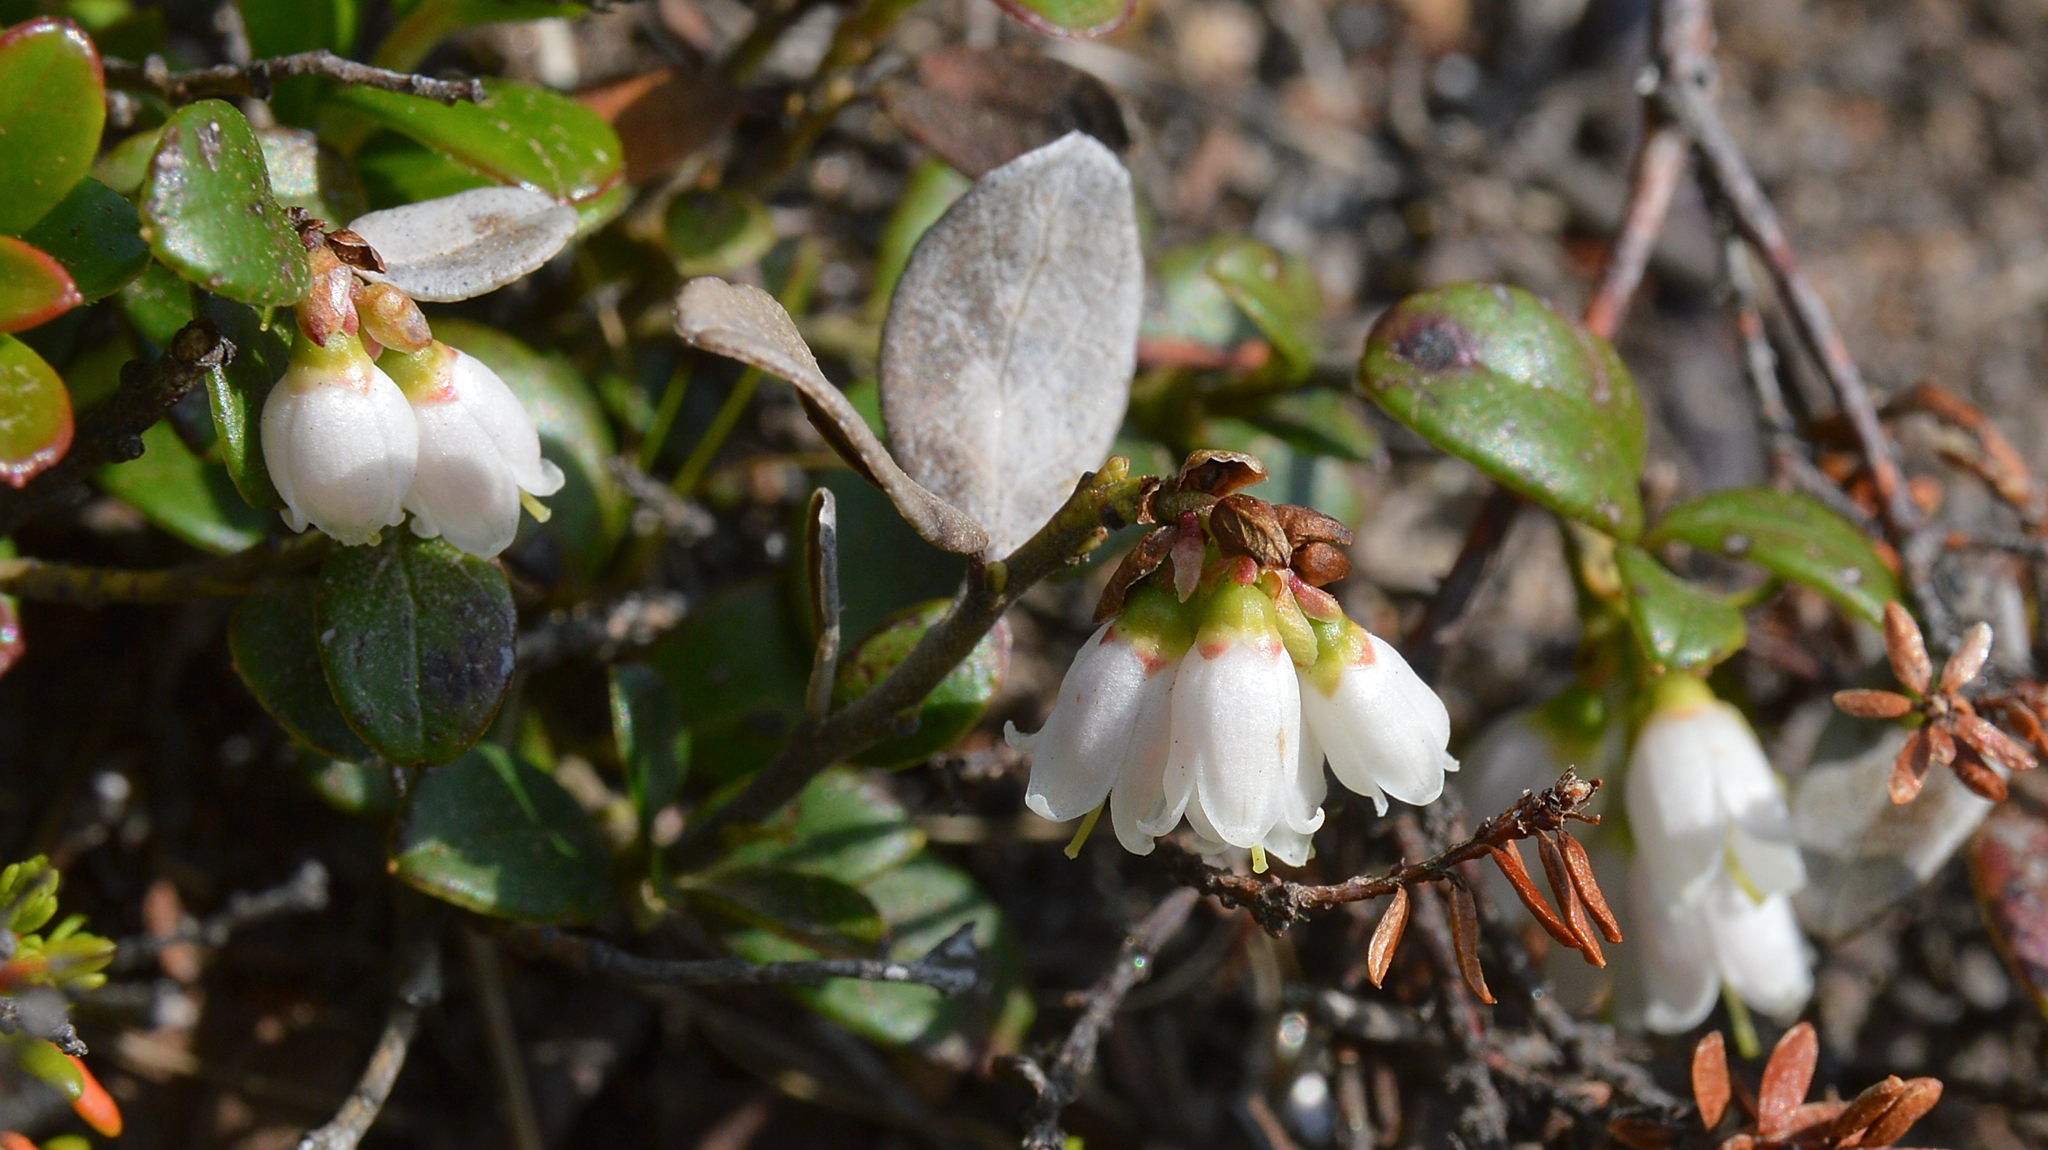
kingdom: Plantae
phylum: Tracheophyta
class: Magnoliopsida
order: Ericales
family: Ericaceae
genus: Vaccinium
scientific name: Vaccinium vitis-idaea
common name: Cowberry
